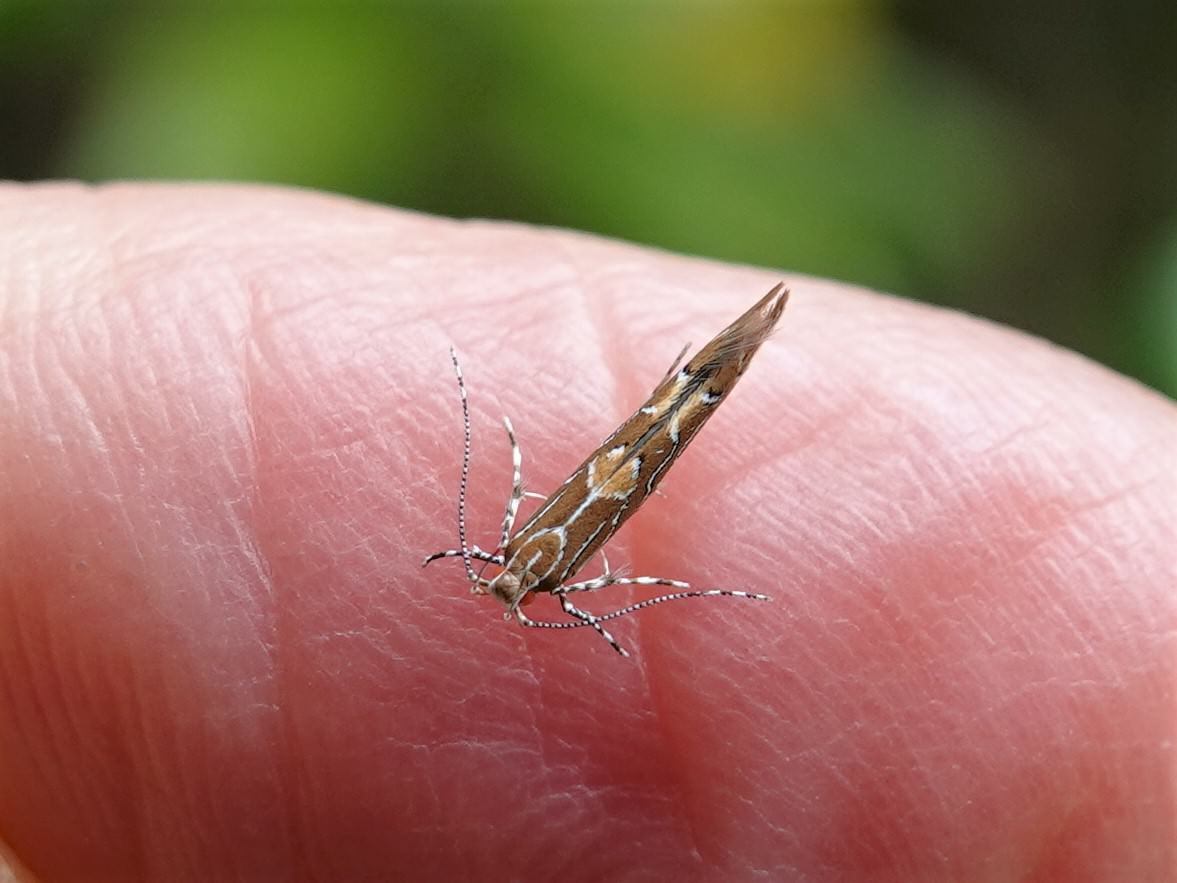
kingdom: Animalia
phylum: Arthropoda
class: Insecta
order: Lepidoptera
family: Cosmopterigidae
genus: Pyroderces
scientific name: Pyroderces apparitella
